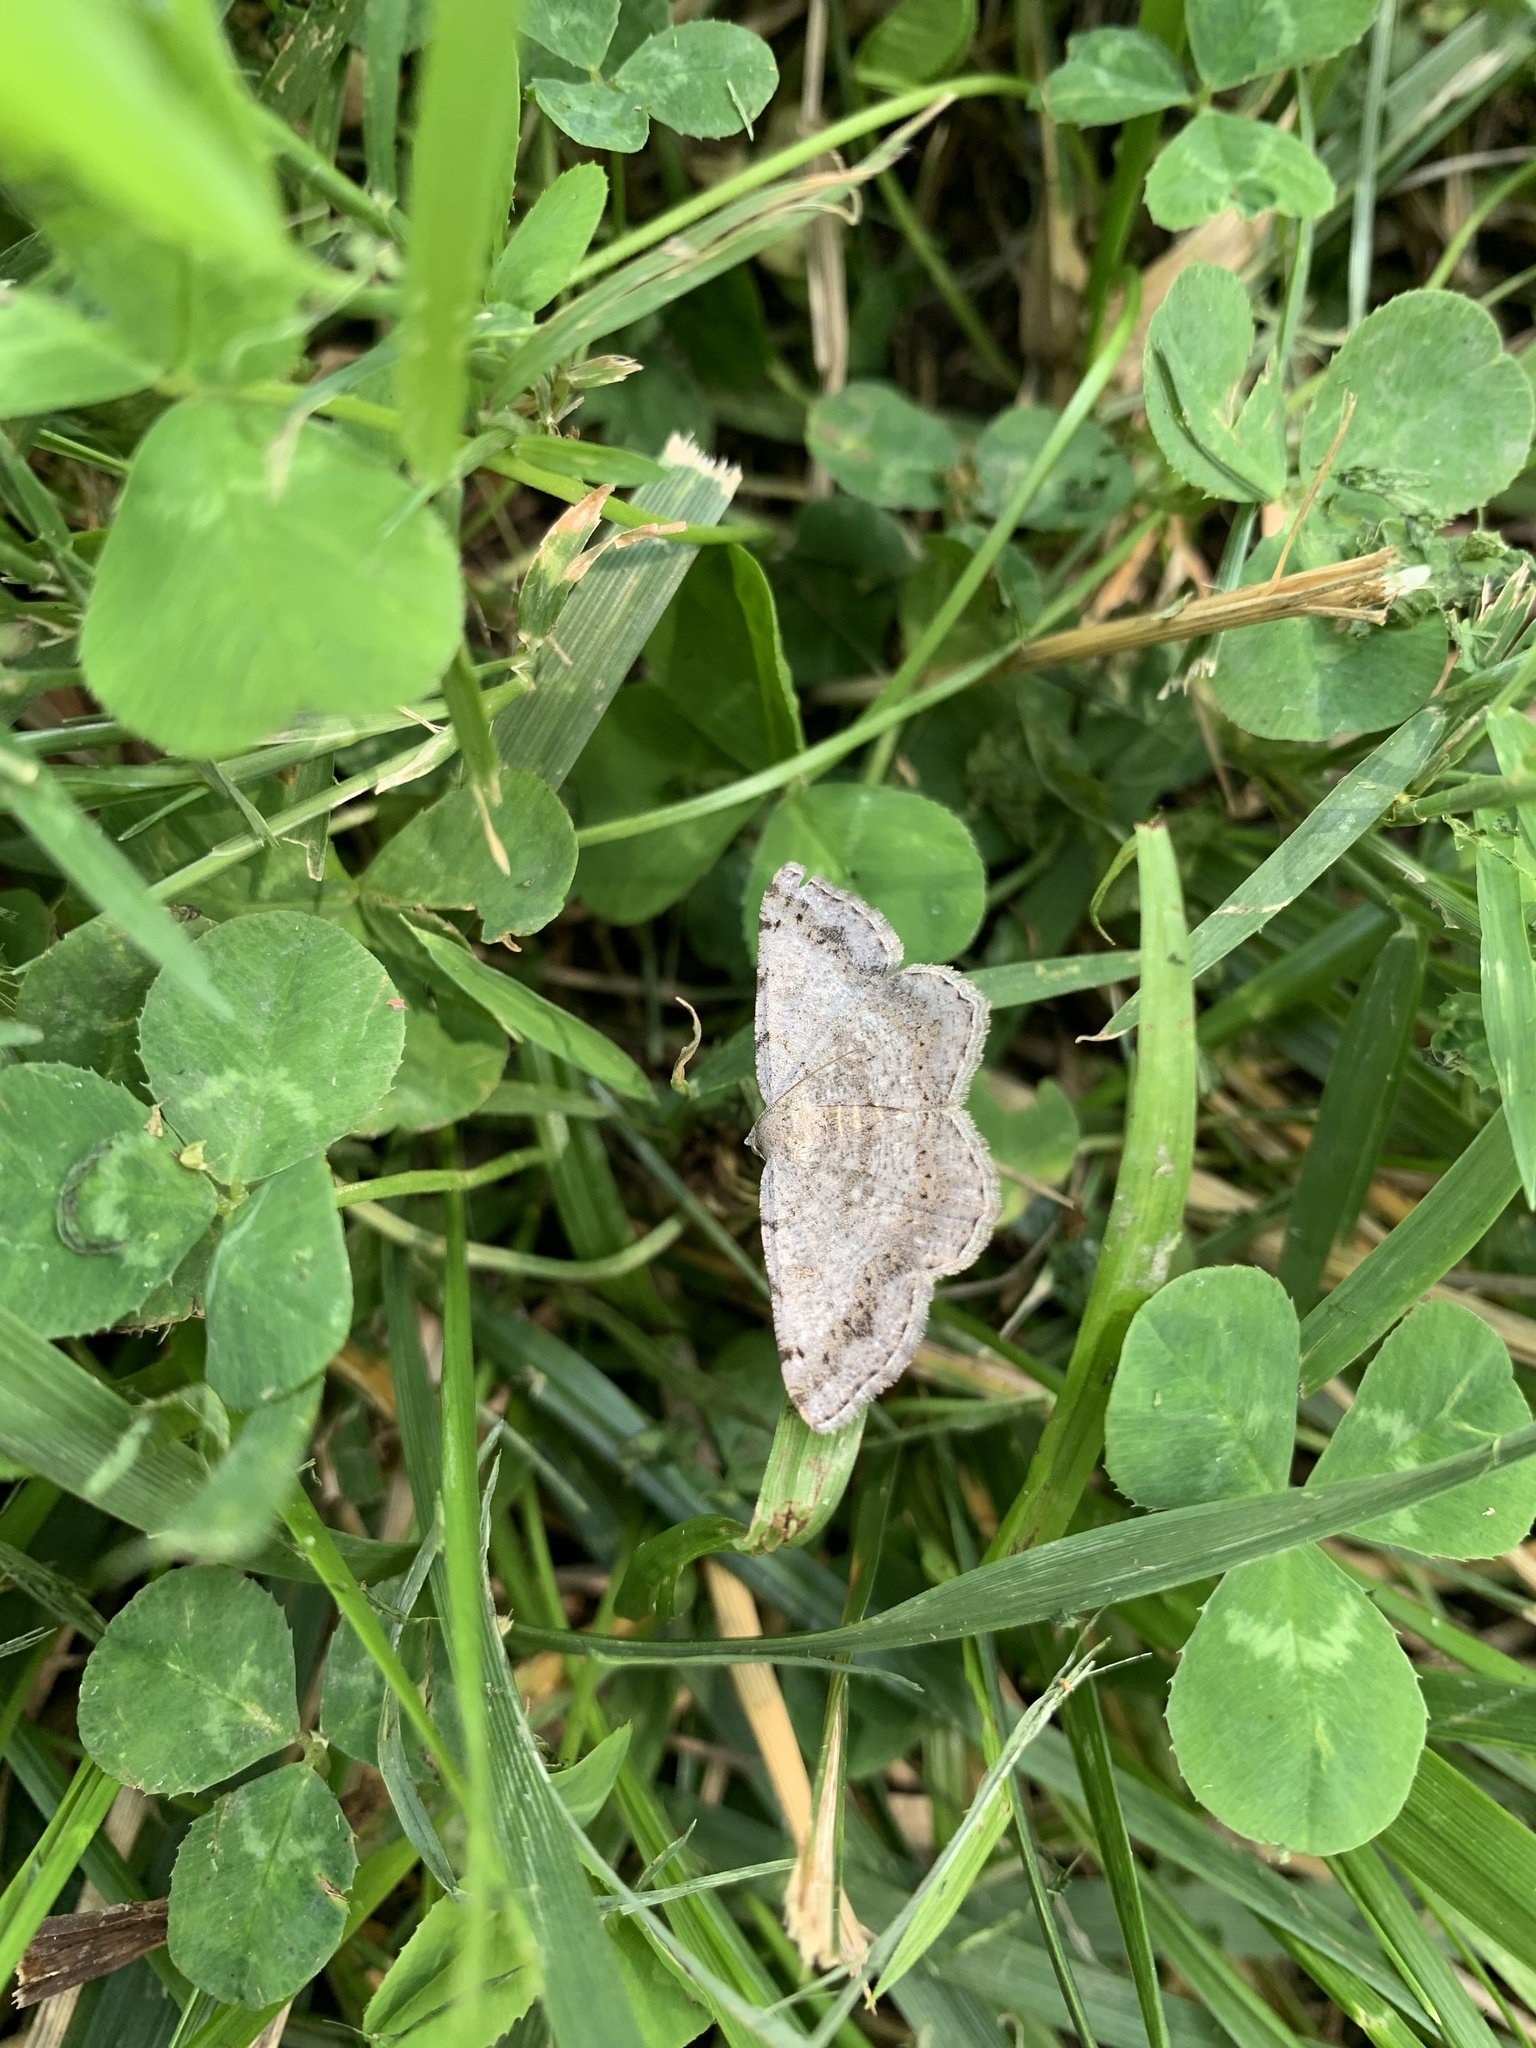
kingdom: Animalia
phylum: Arthropoda
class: Insecta
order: Lepidoptera
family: Geometridae
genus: Digrammia
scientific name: Digrammia ocellinata
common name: Faint-spotted angle
